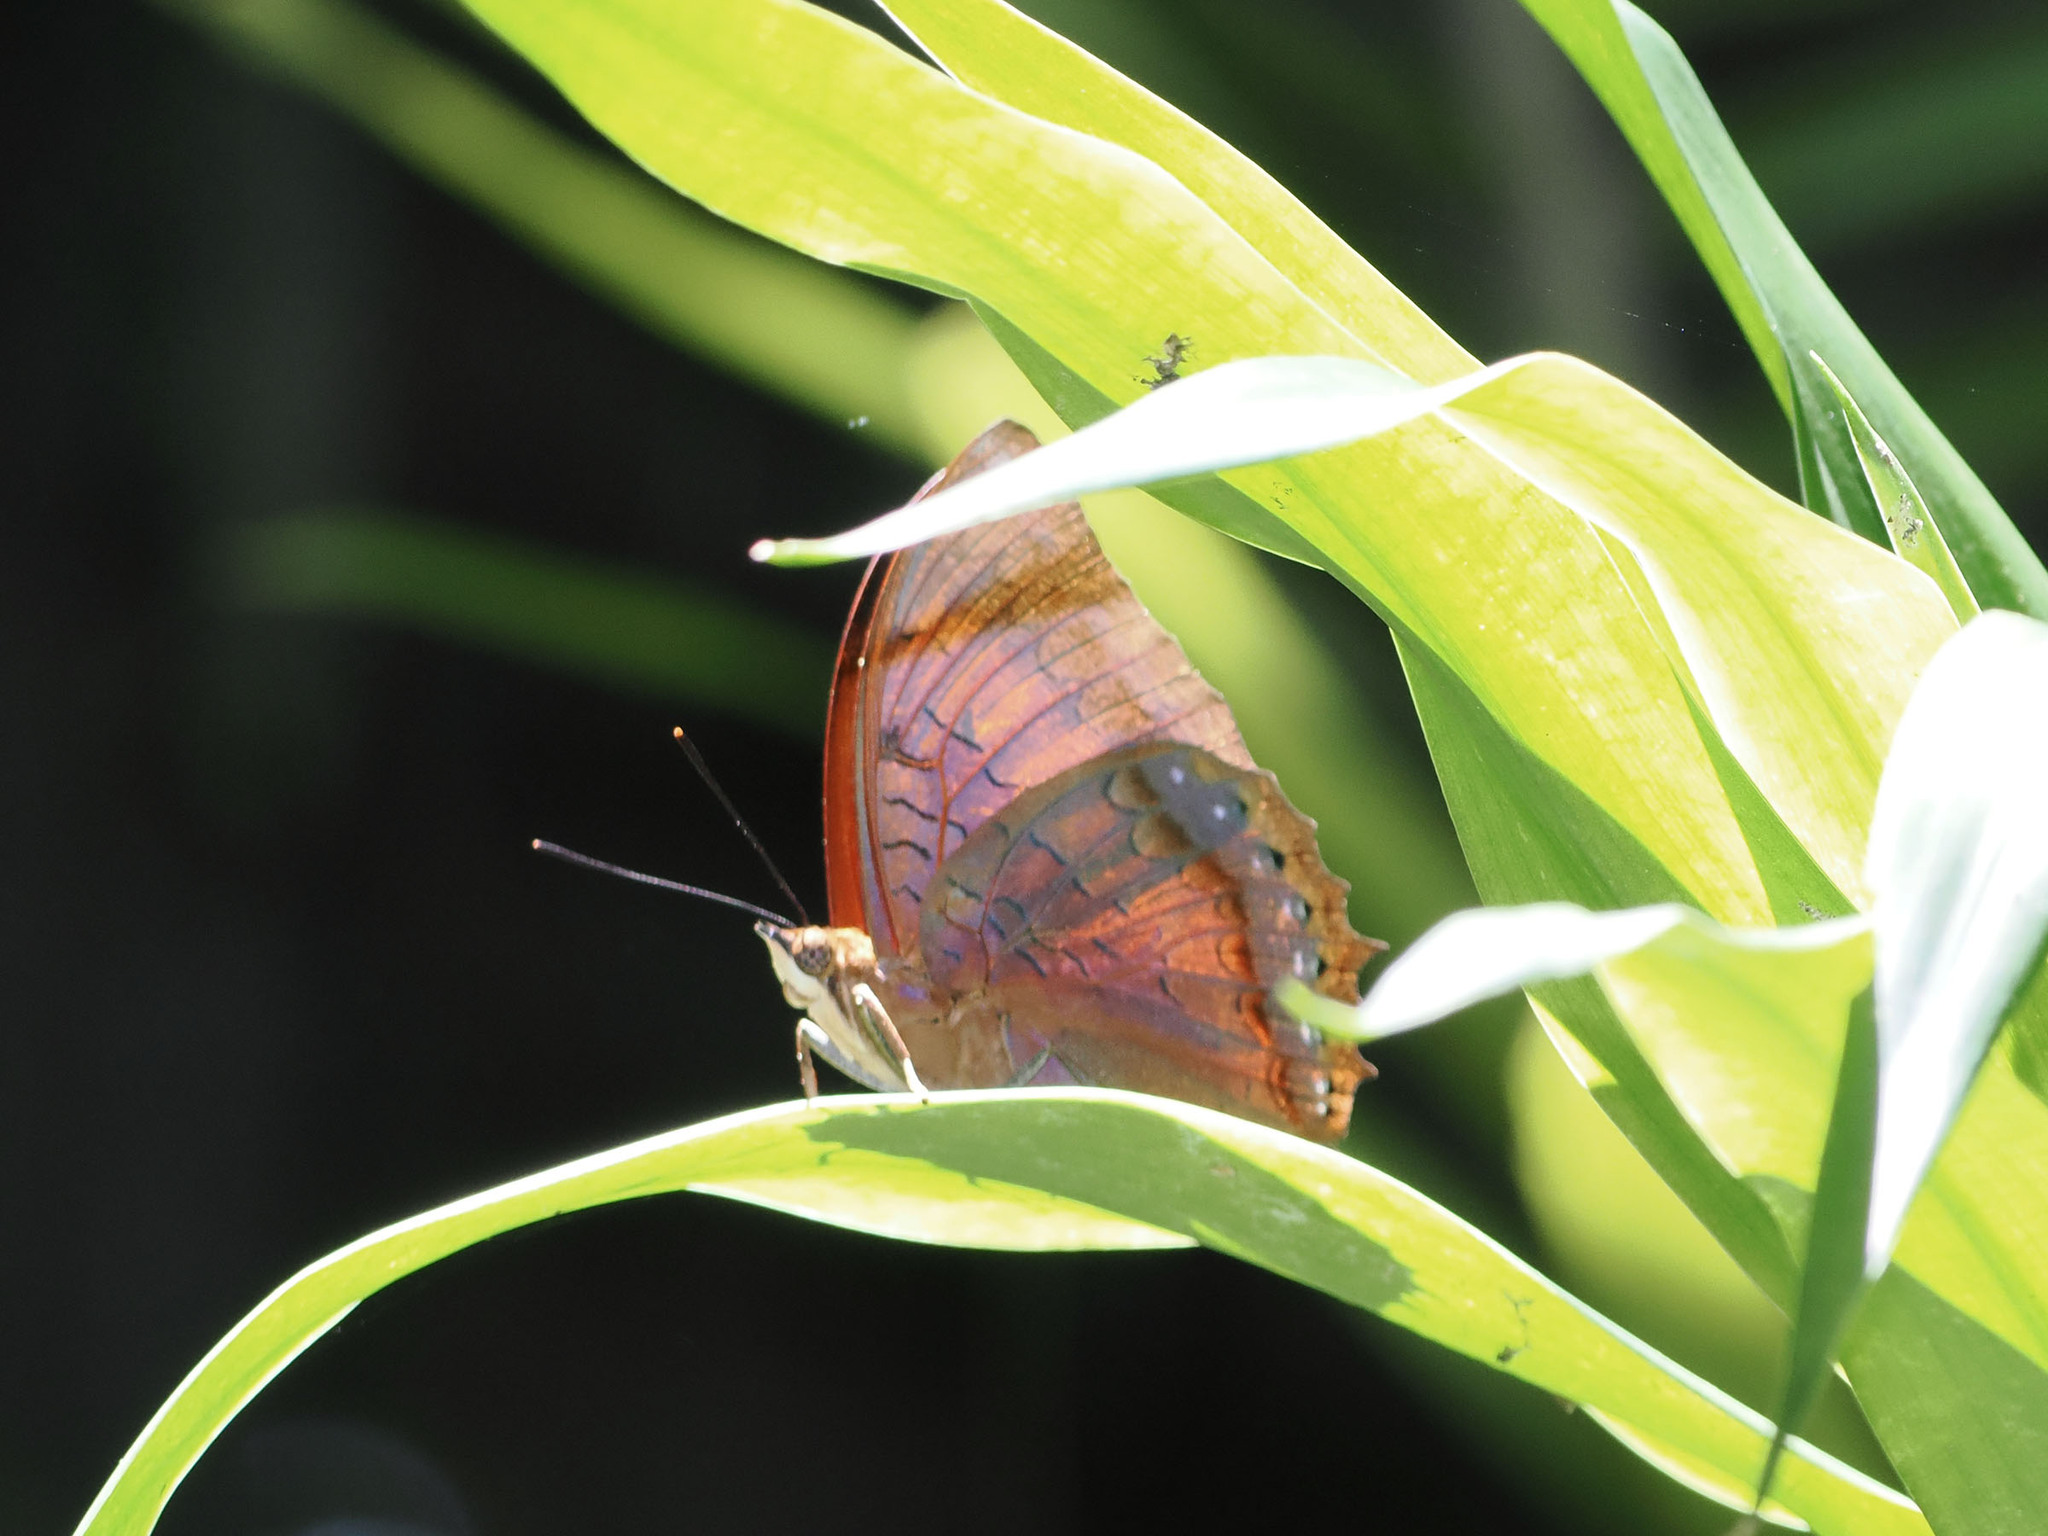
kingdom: Animalia
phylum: Arthropoda
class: Insecta
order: Lepidoptera
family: Nymphalidae
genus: Charaxes
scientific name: Charaxes latona
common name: Orange emperor
